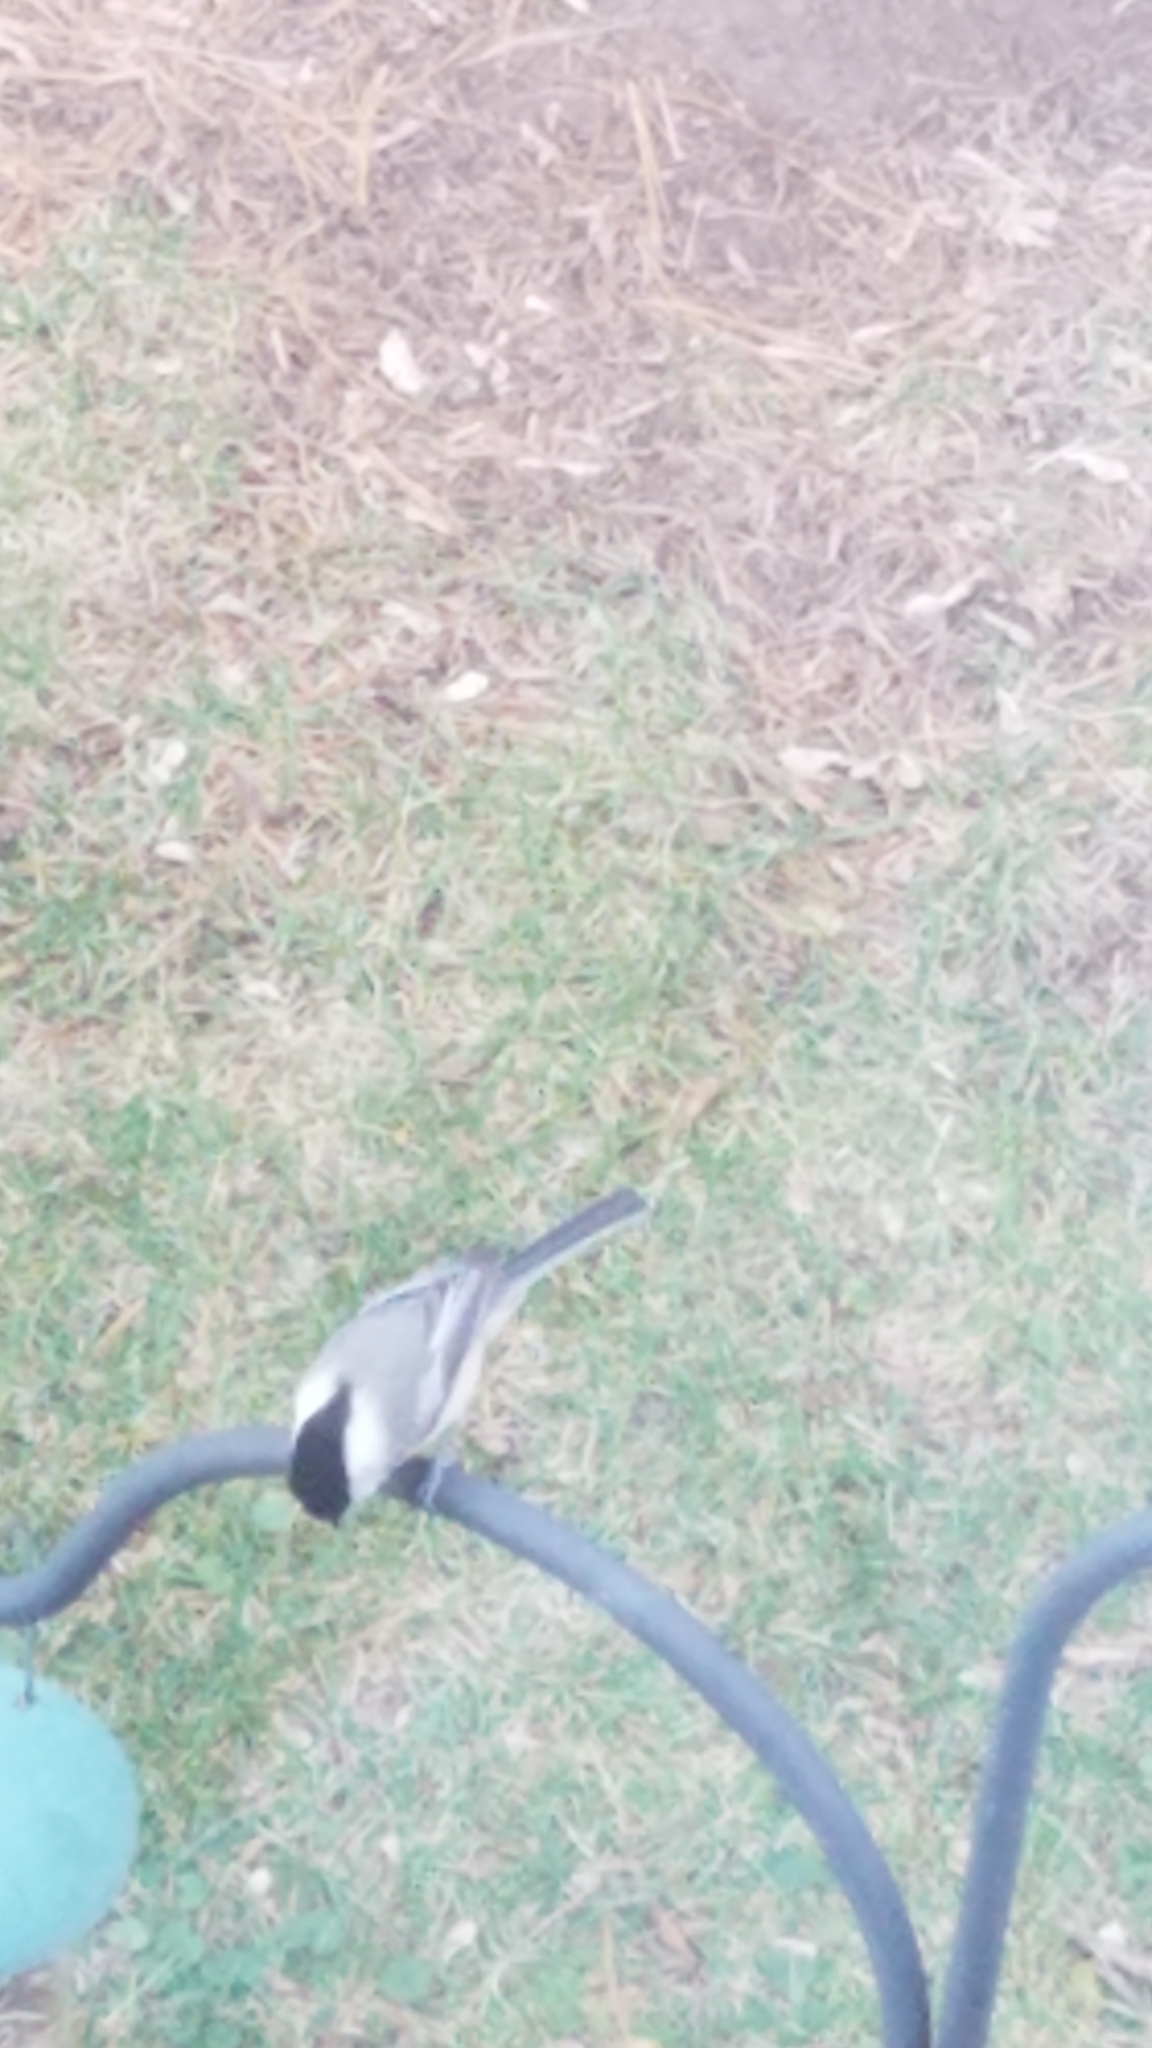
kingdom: Animalia
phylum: Chordata
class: Aves
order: Passeriformes
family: Paridae
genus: Poecile
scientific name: Poecile atricapillus
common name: Black-capped chickadee
